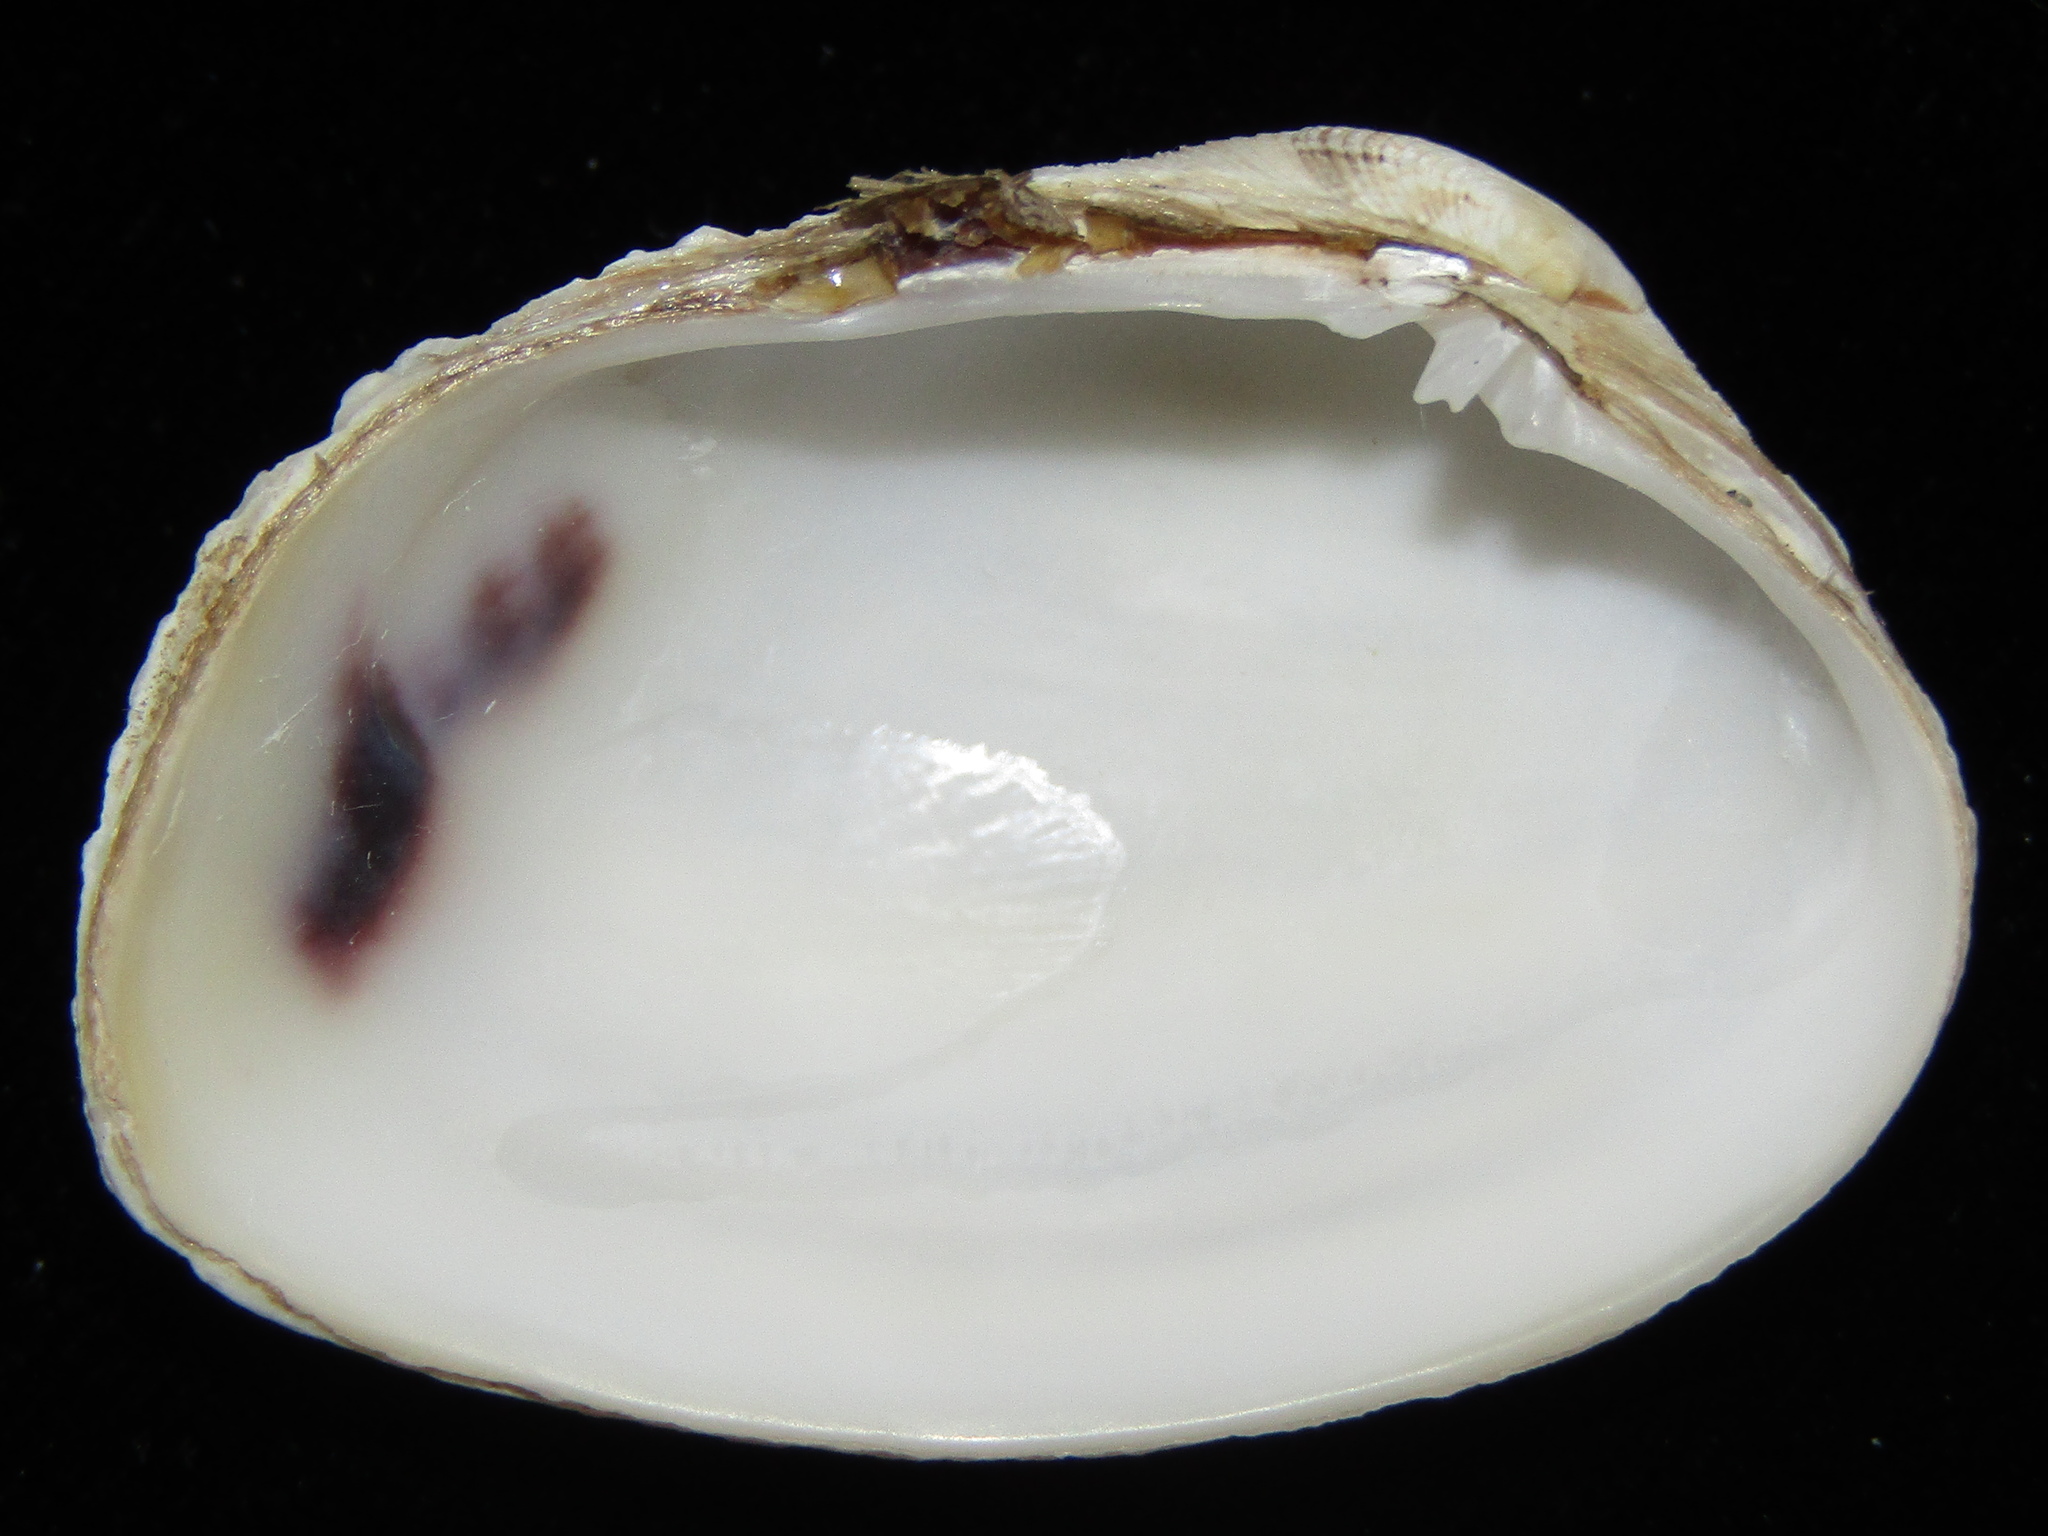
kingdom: Animalia
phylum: Mollusca
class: Bivalvia
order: Venerida
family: Veneridae
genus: Irus
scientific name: Irus reflexus
